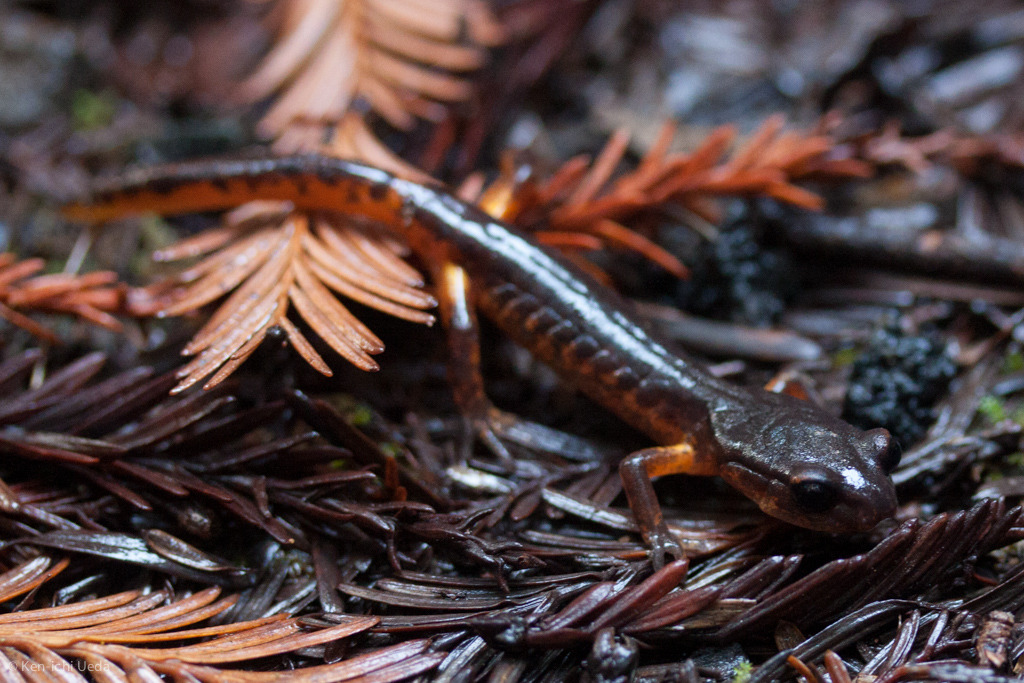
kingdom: Animalia
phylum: Chordata
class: Amphibia
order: Caudata
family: Plethodontidae
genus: Ensatina
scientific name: Ensatina eschscholtzii
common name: Ensatina
